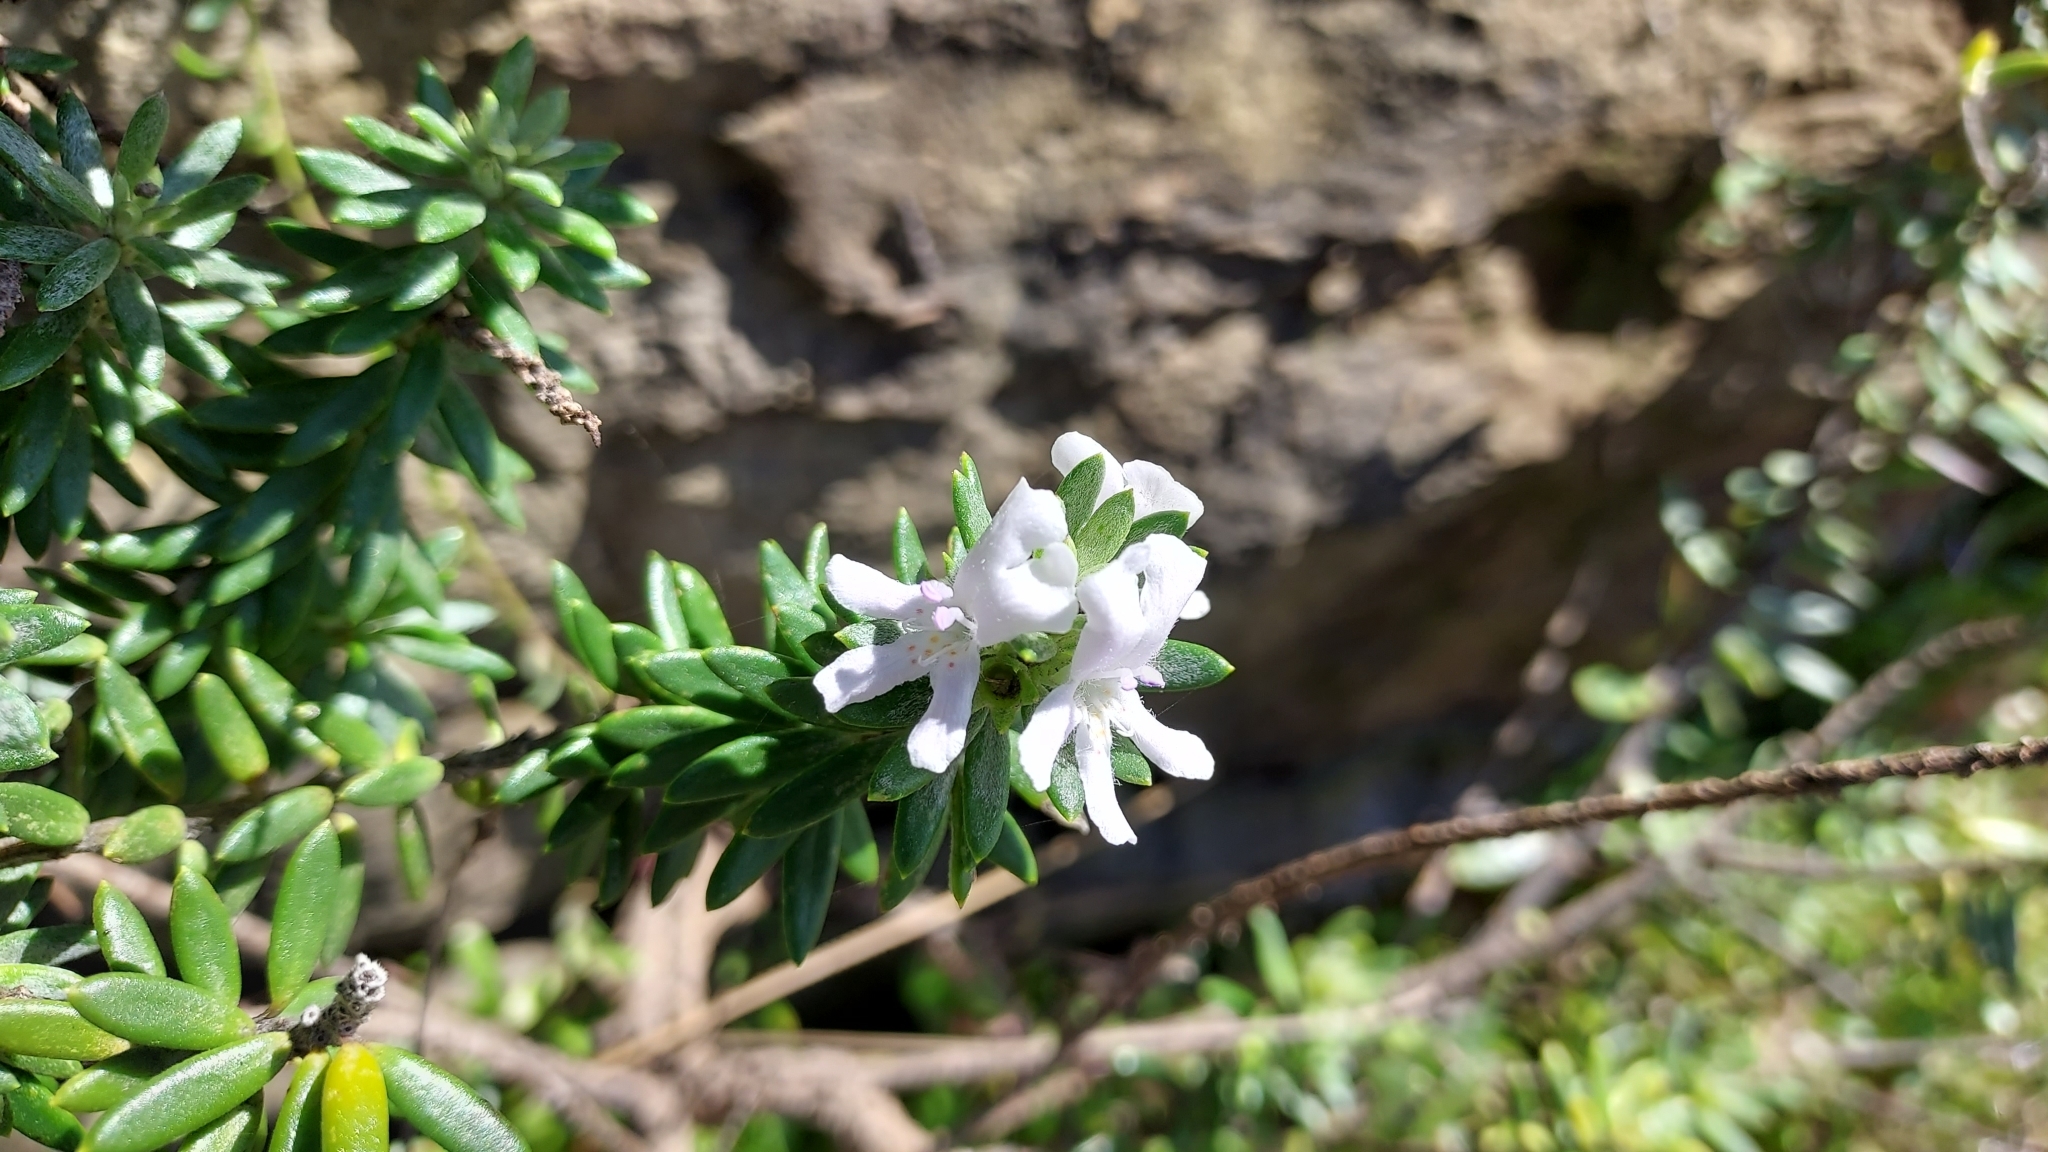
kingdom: Plantae
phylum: Tracheophyta
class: Magnoliopsida
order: Lamiales
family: Lamiaceae
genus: Westringia
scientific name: Westringia fruticosa
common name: Coastal-rosemary
